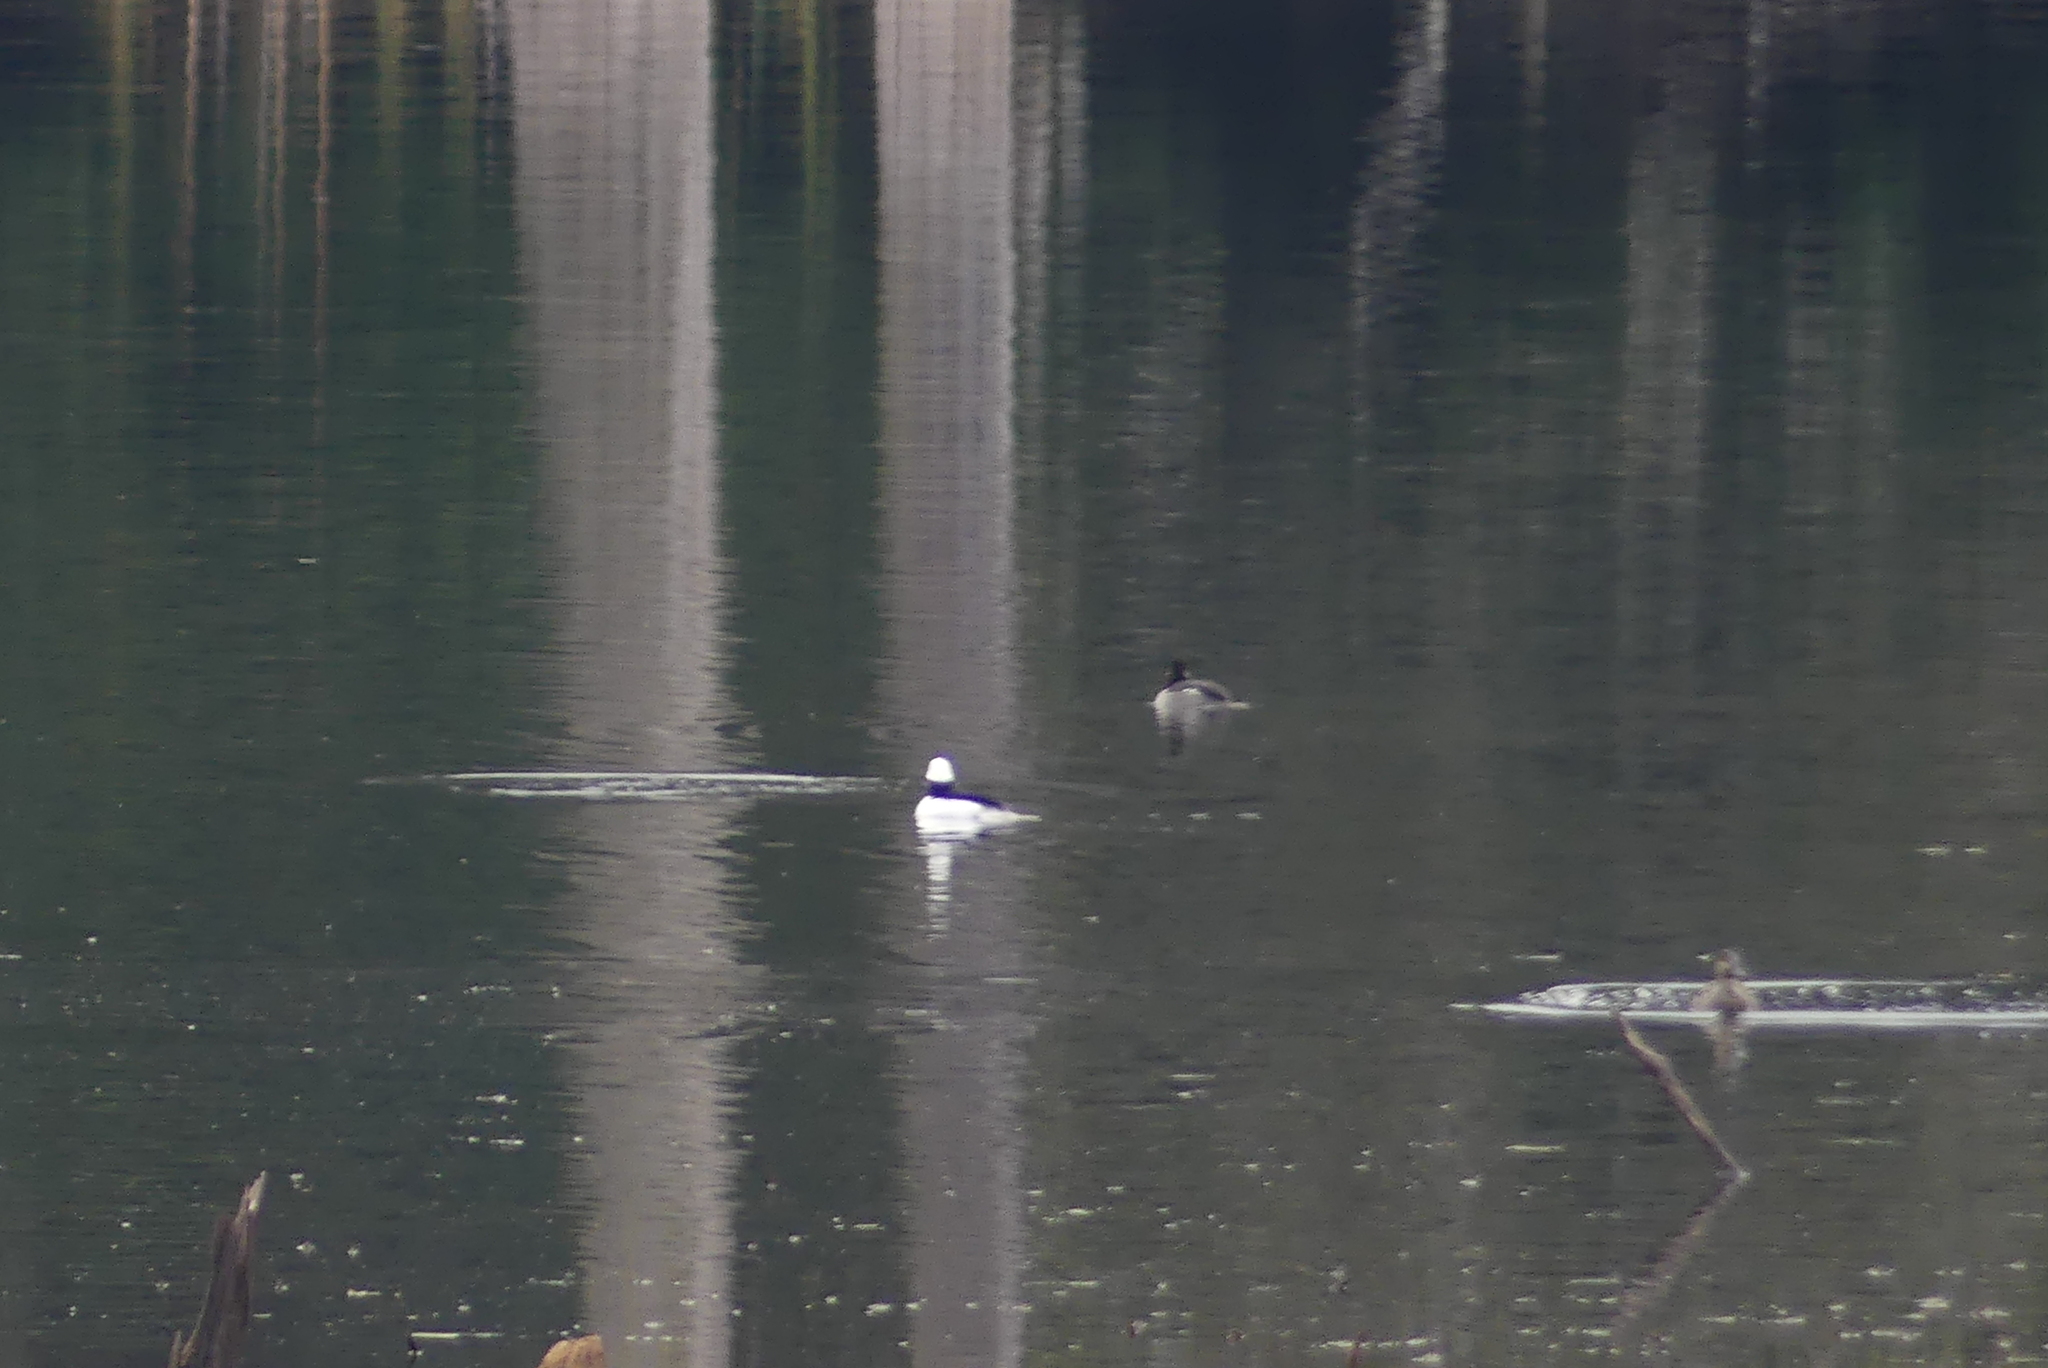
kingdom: Animalia
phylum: Chordata
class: Aves
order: Anseriformes
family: Anatidae
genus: Bucephala
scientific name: Bucephala albeola
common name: Bufflehead
